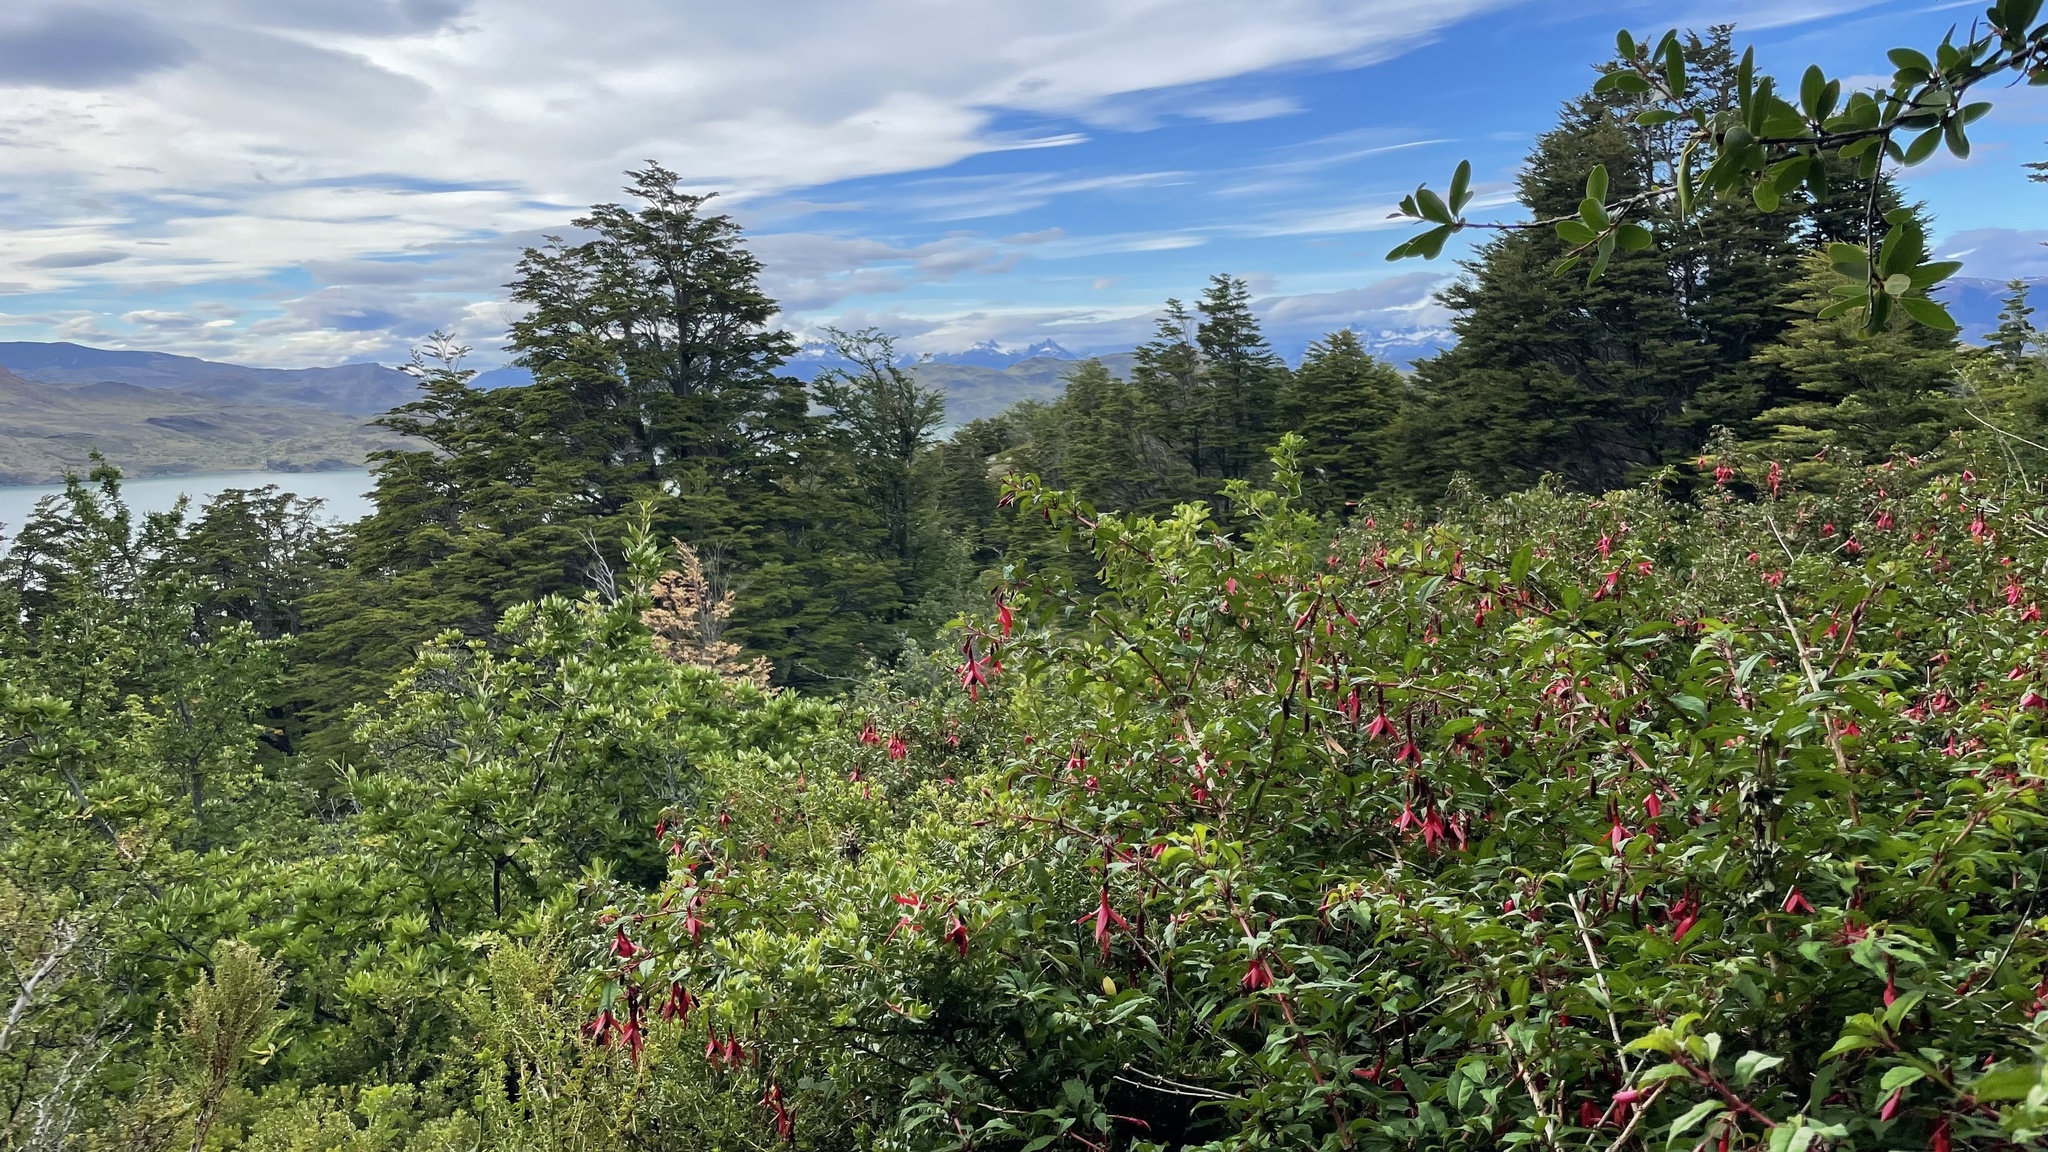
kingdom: Plantae
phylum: Tracheophyta
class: Magnoliopsida
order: Myrtales
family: Onagraceae
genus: Fuchsia
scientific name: Fuchsia magellanica
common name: Hardy fuchsia
